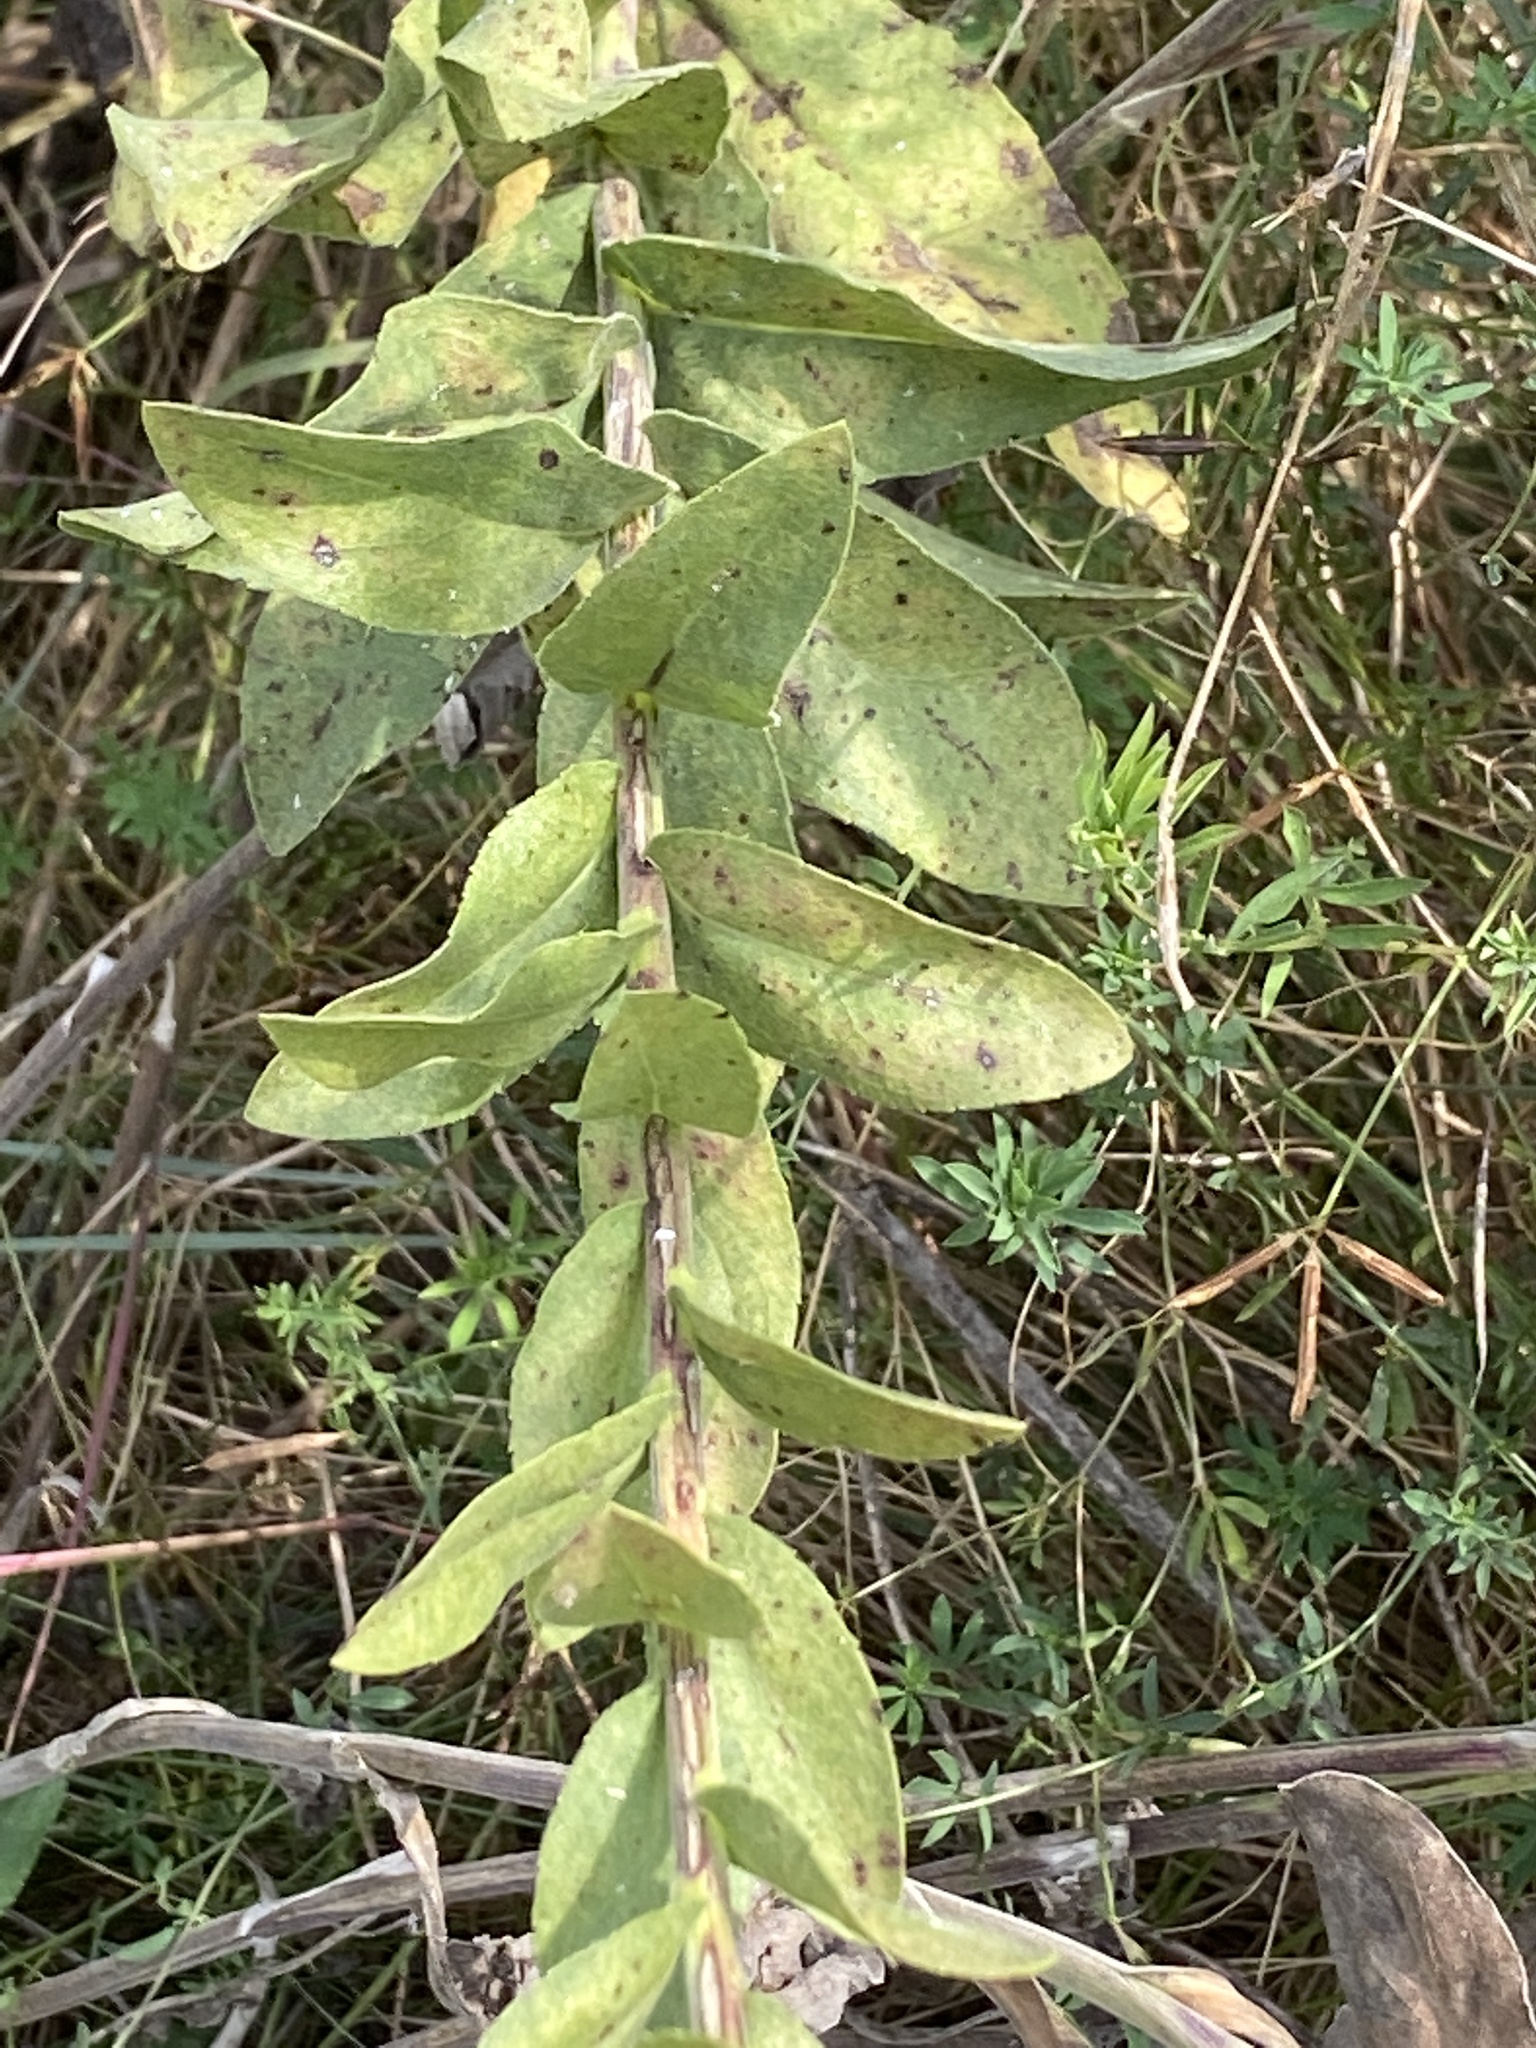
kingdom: Plantae
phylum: Tracheophyta
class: Magnoliopsida
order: Asterales
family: Asteraceae
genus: Solidago
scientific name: Solidago rigida
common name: Rigid goldenrod
